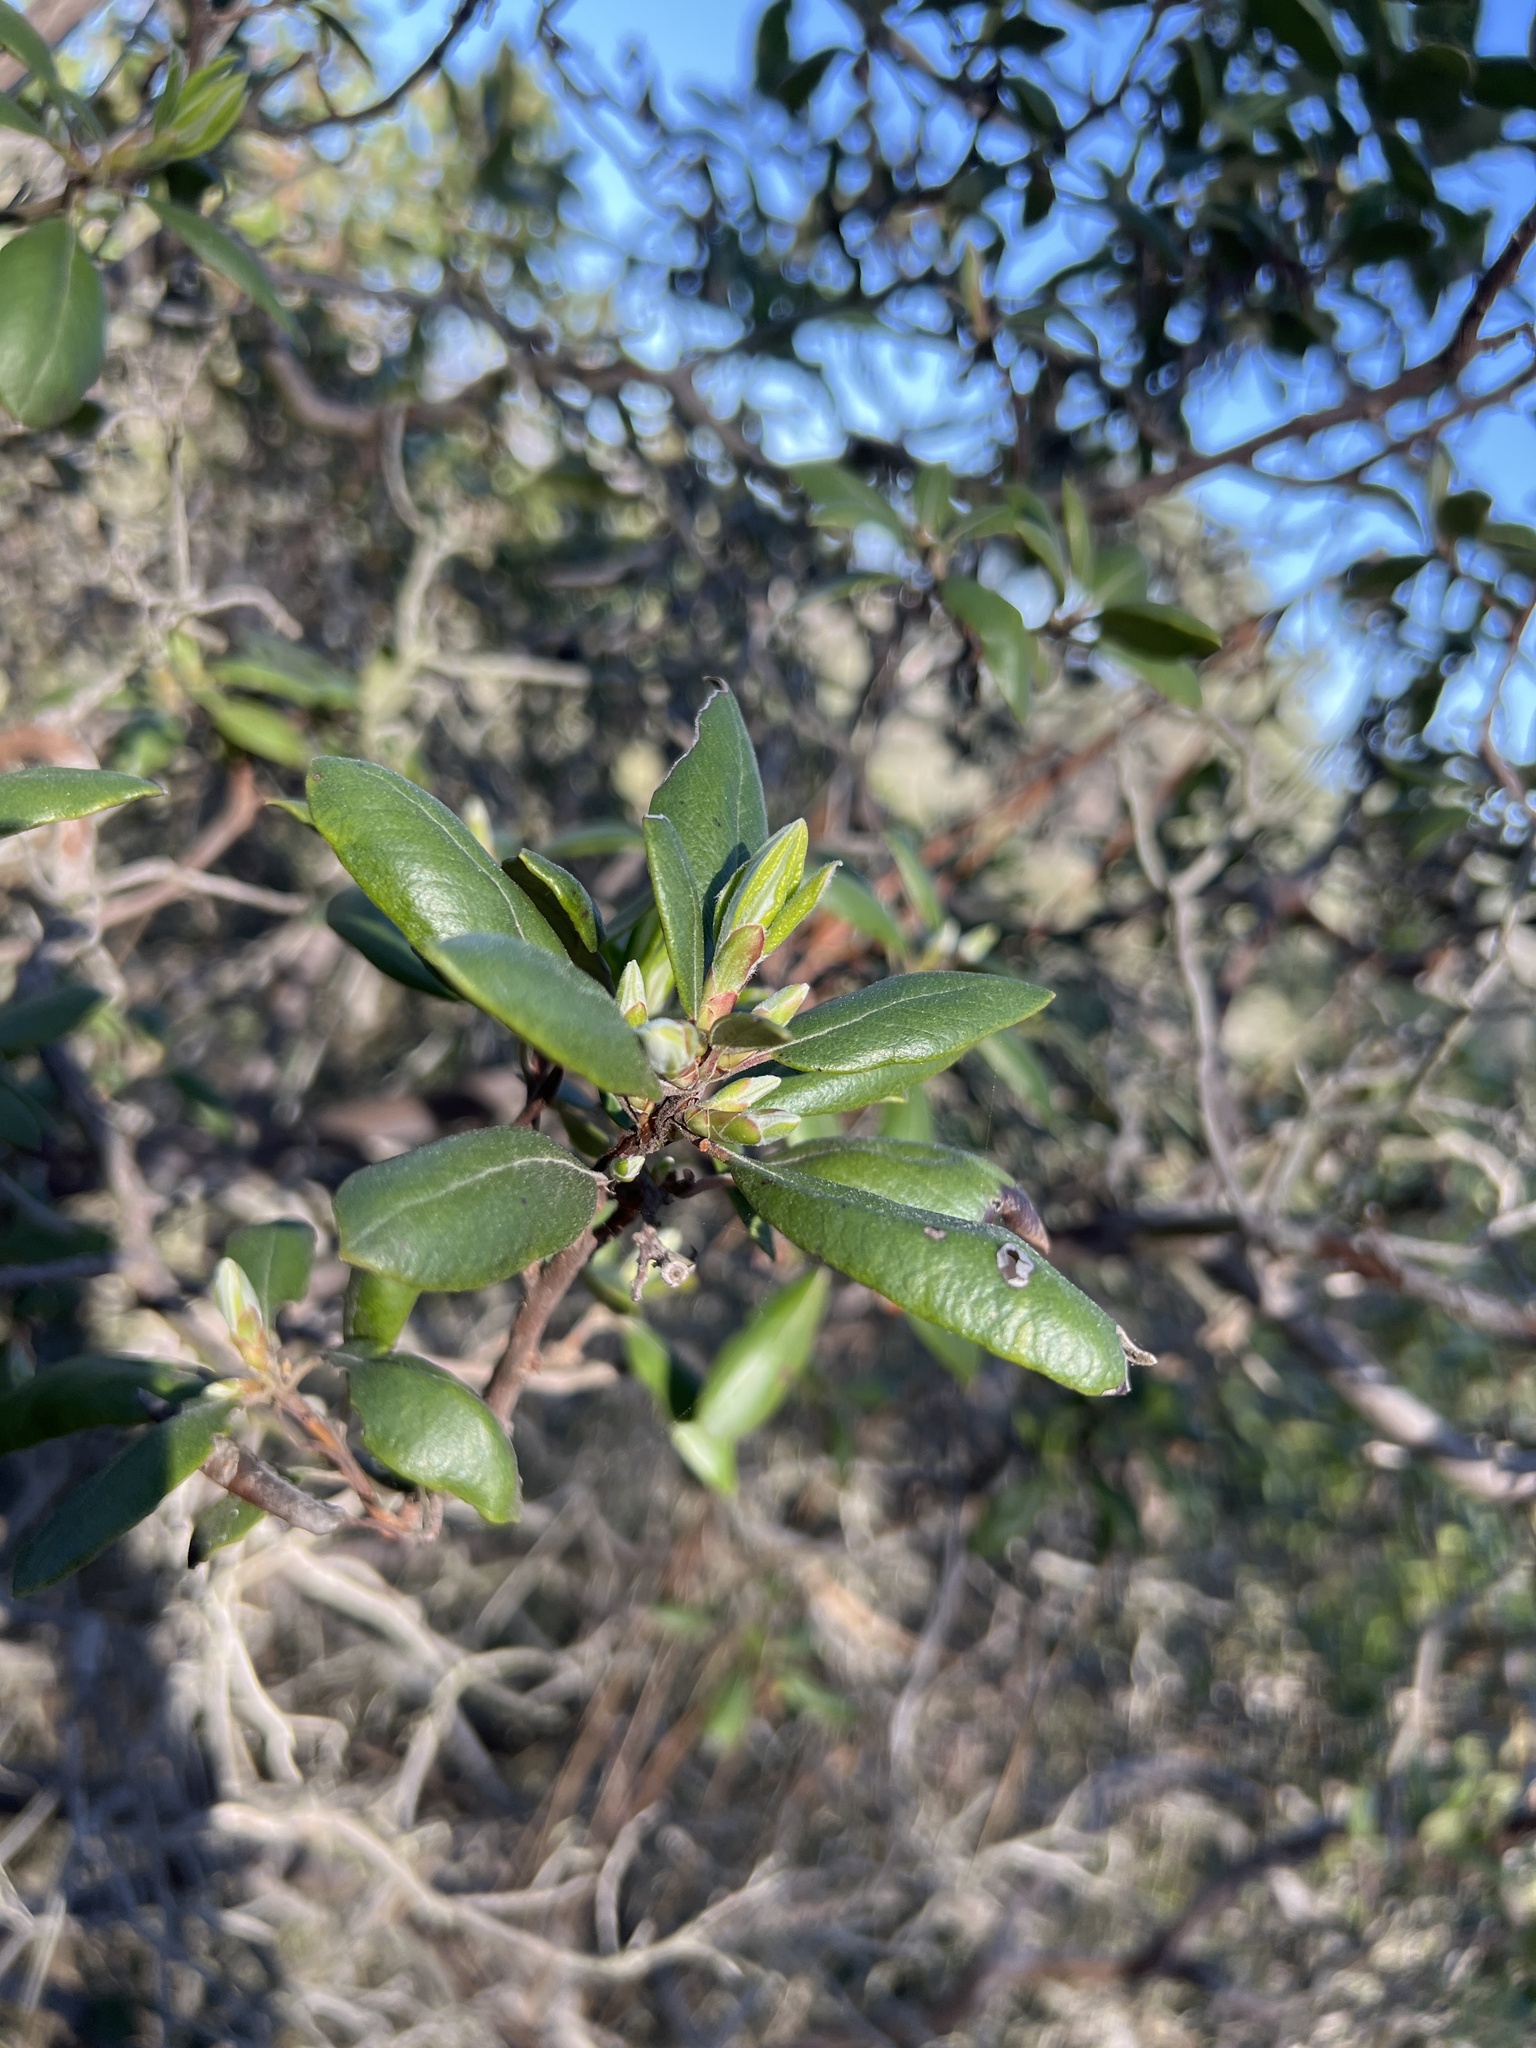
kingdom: Plantae
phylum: Tracheophyta
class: Magnoliopsida
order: Ericales
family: Ericaceae
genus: Arctostaphylos
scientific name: Arctostaphylos bicolor
